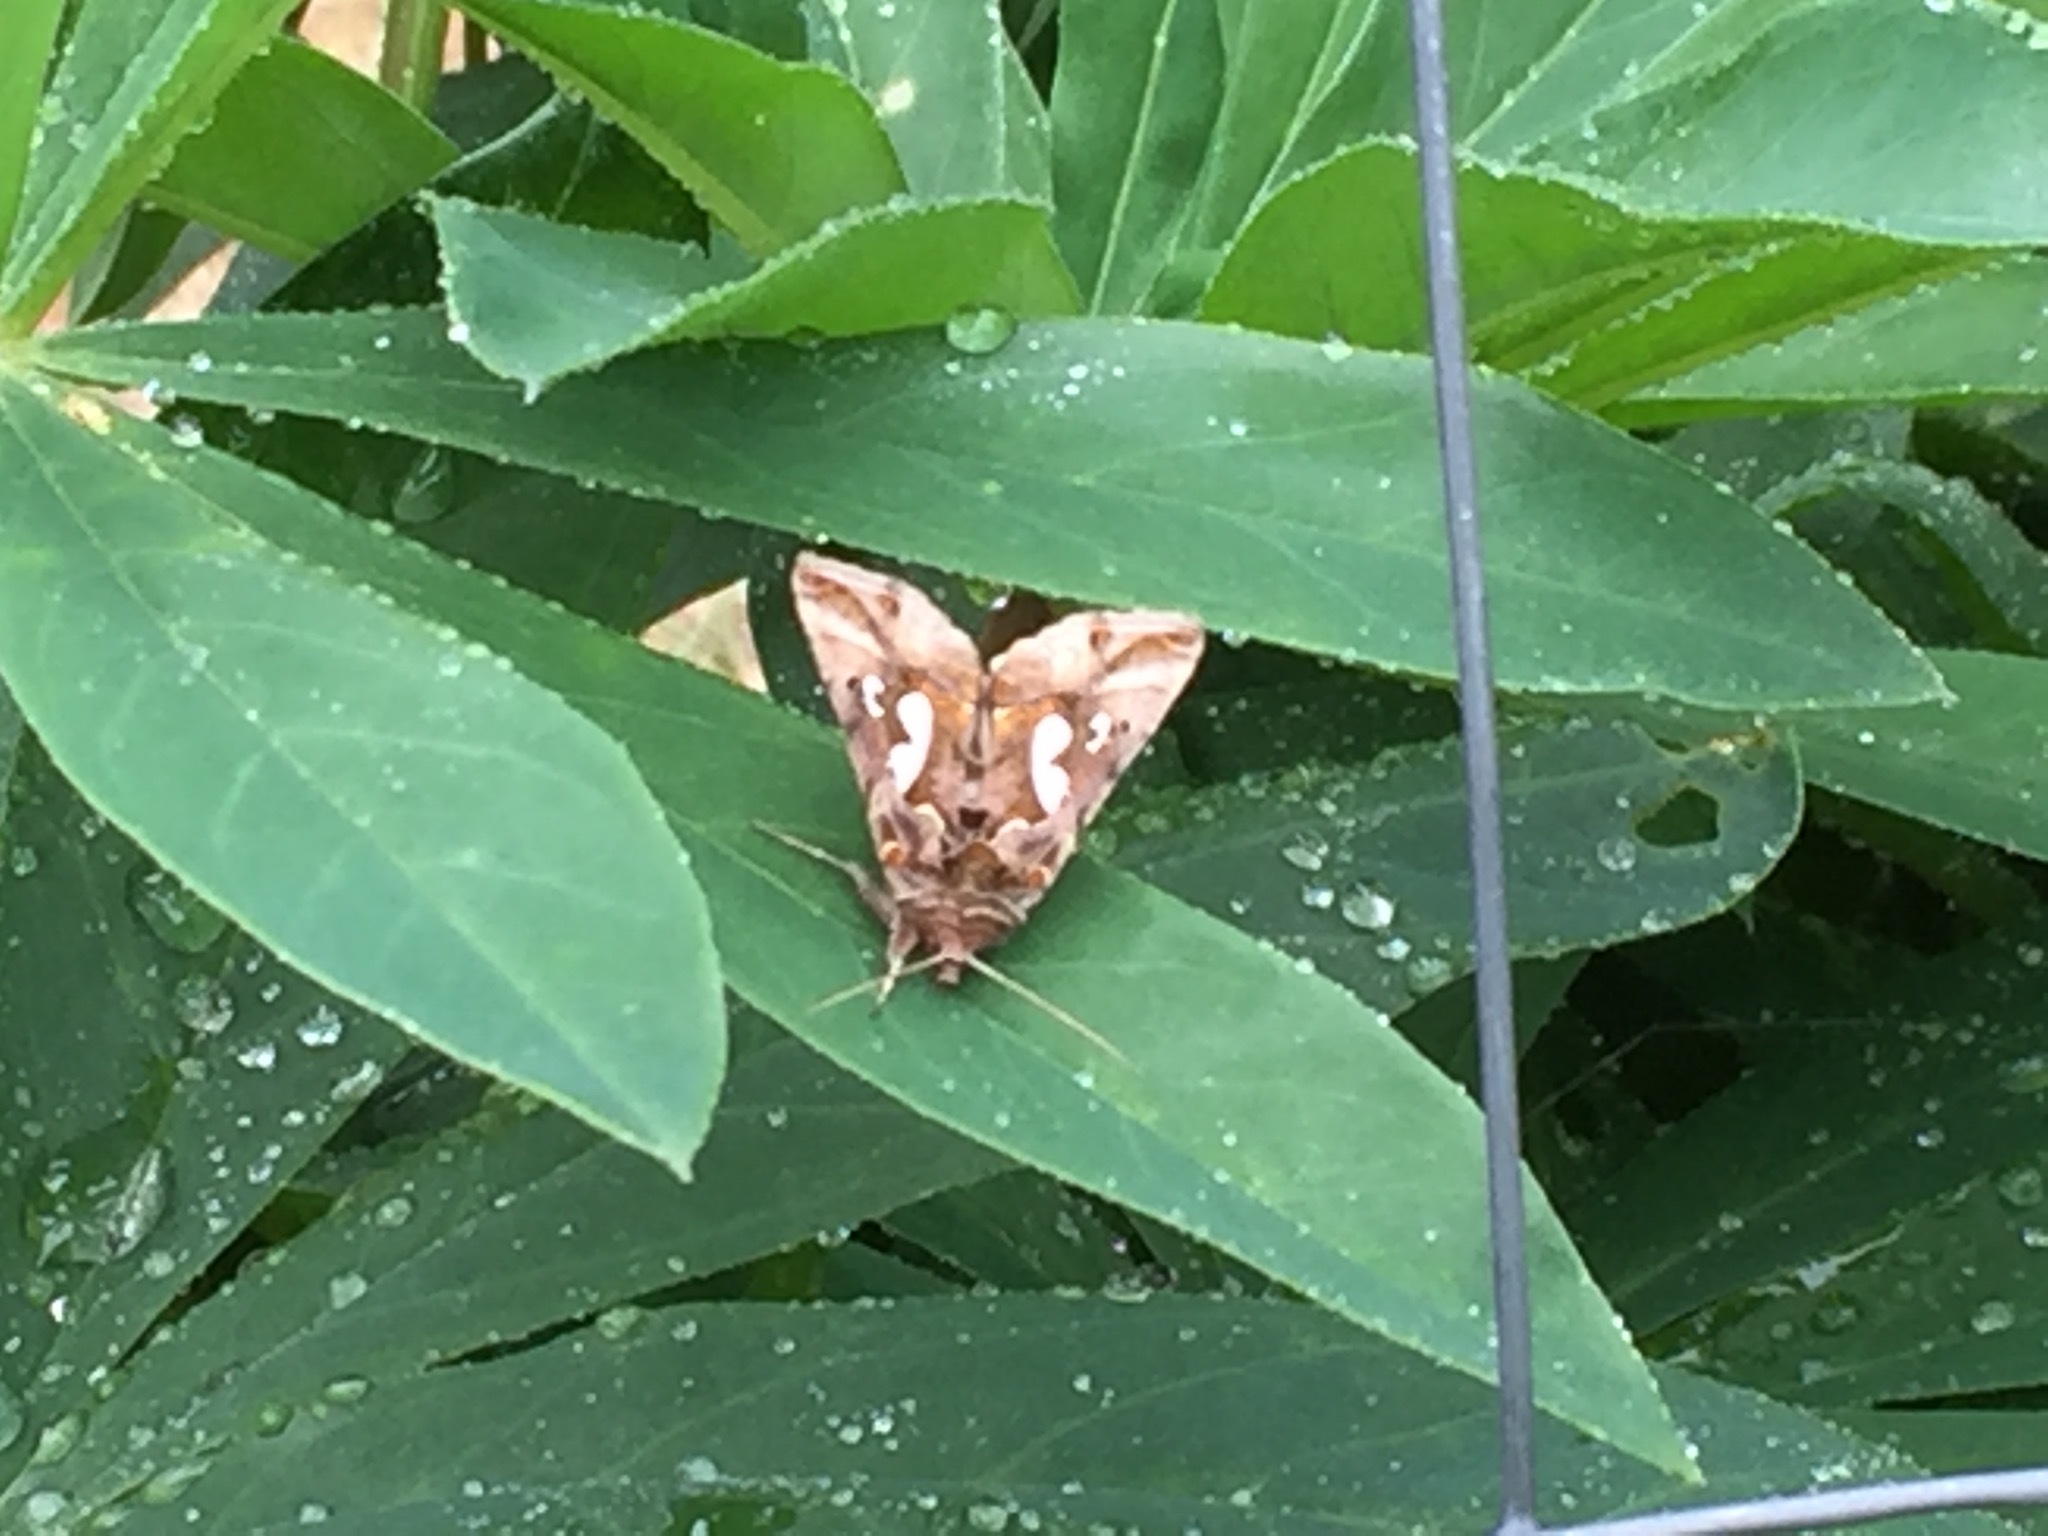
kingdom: Animalia
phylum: Arthropoda
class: Insecta
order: Lepidoptera
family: Noctuidae
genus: Megalographa
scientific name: Megalographa biloba
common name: Cutworm
